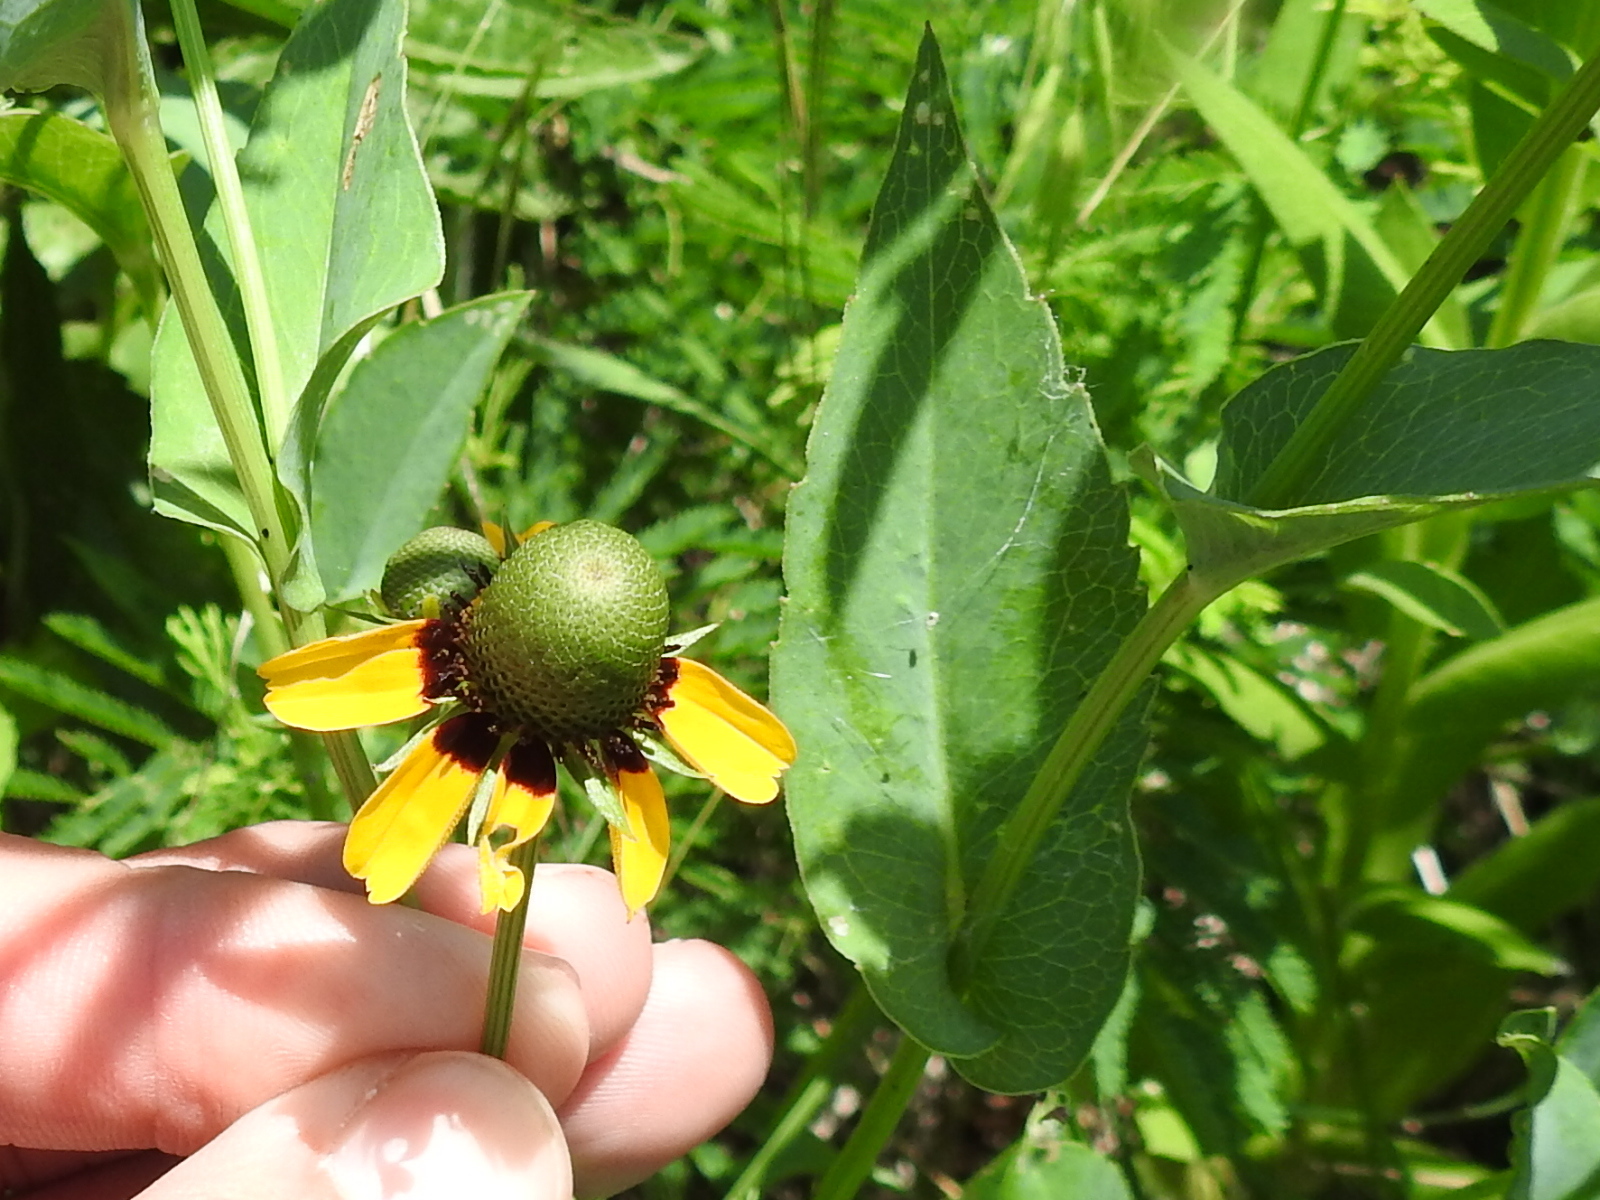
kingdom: Plantae
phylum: Tracheophyta
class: Magnoliopsida
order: Asterales
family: Asteraceae
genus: Rudbeckia
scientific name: Rudbeckia amplexicaulis
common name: Clasping-leaf coneflower
